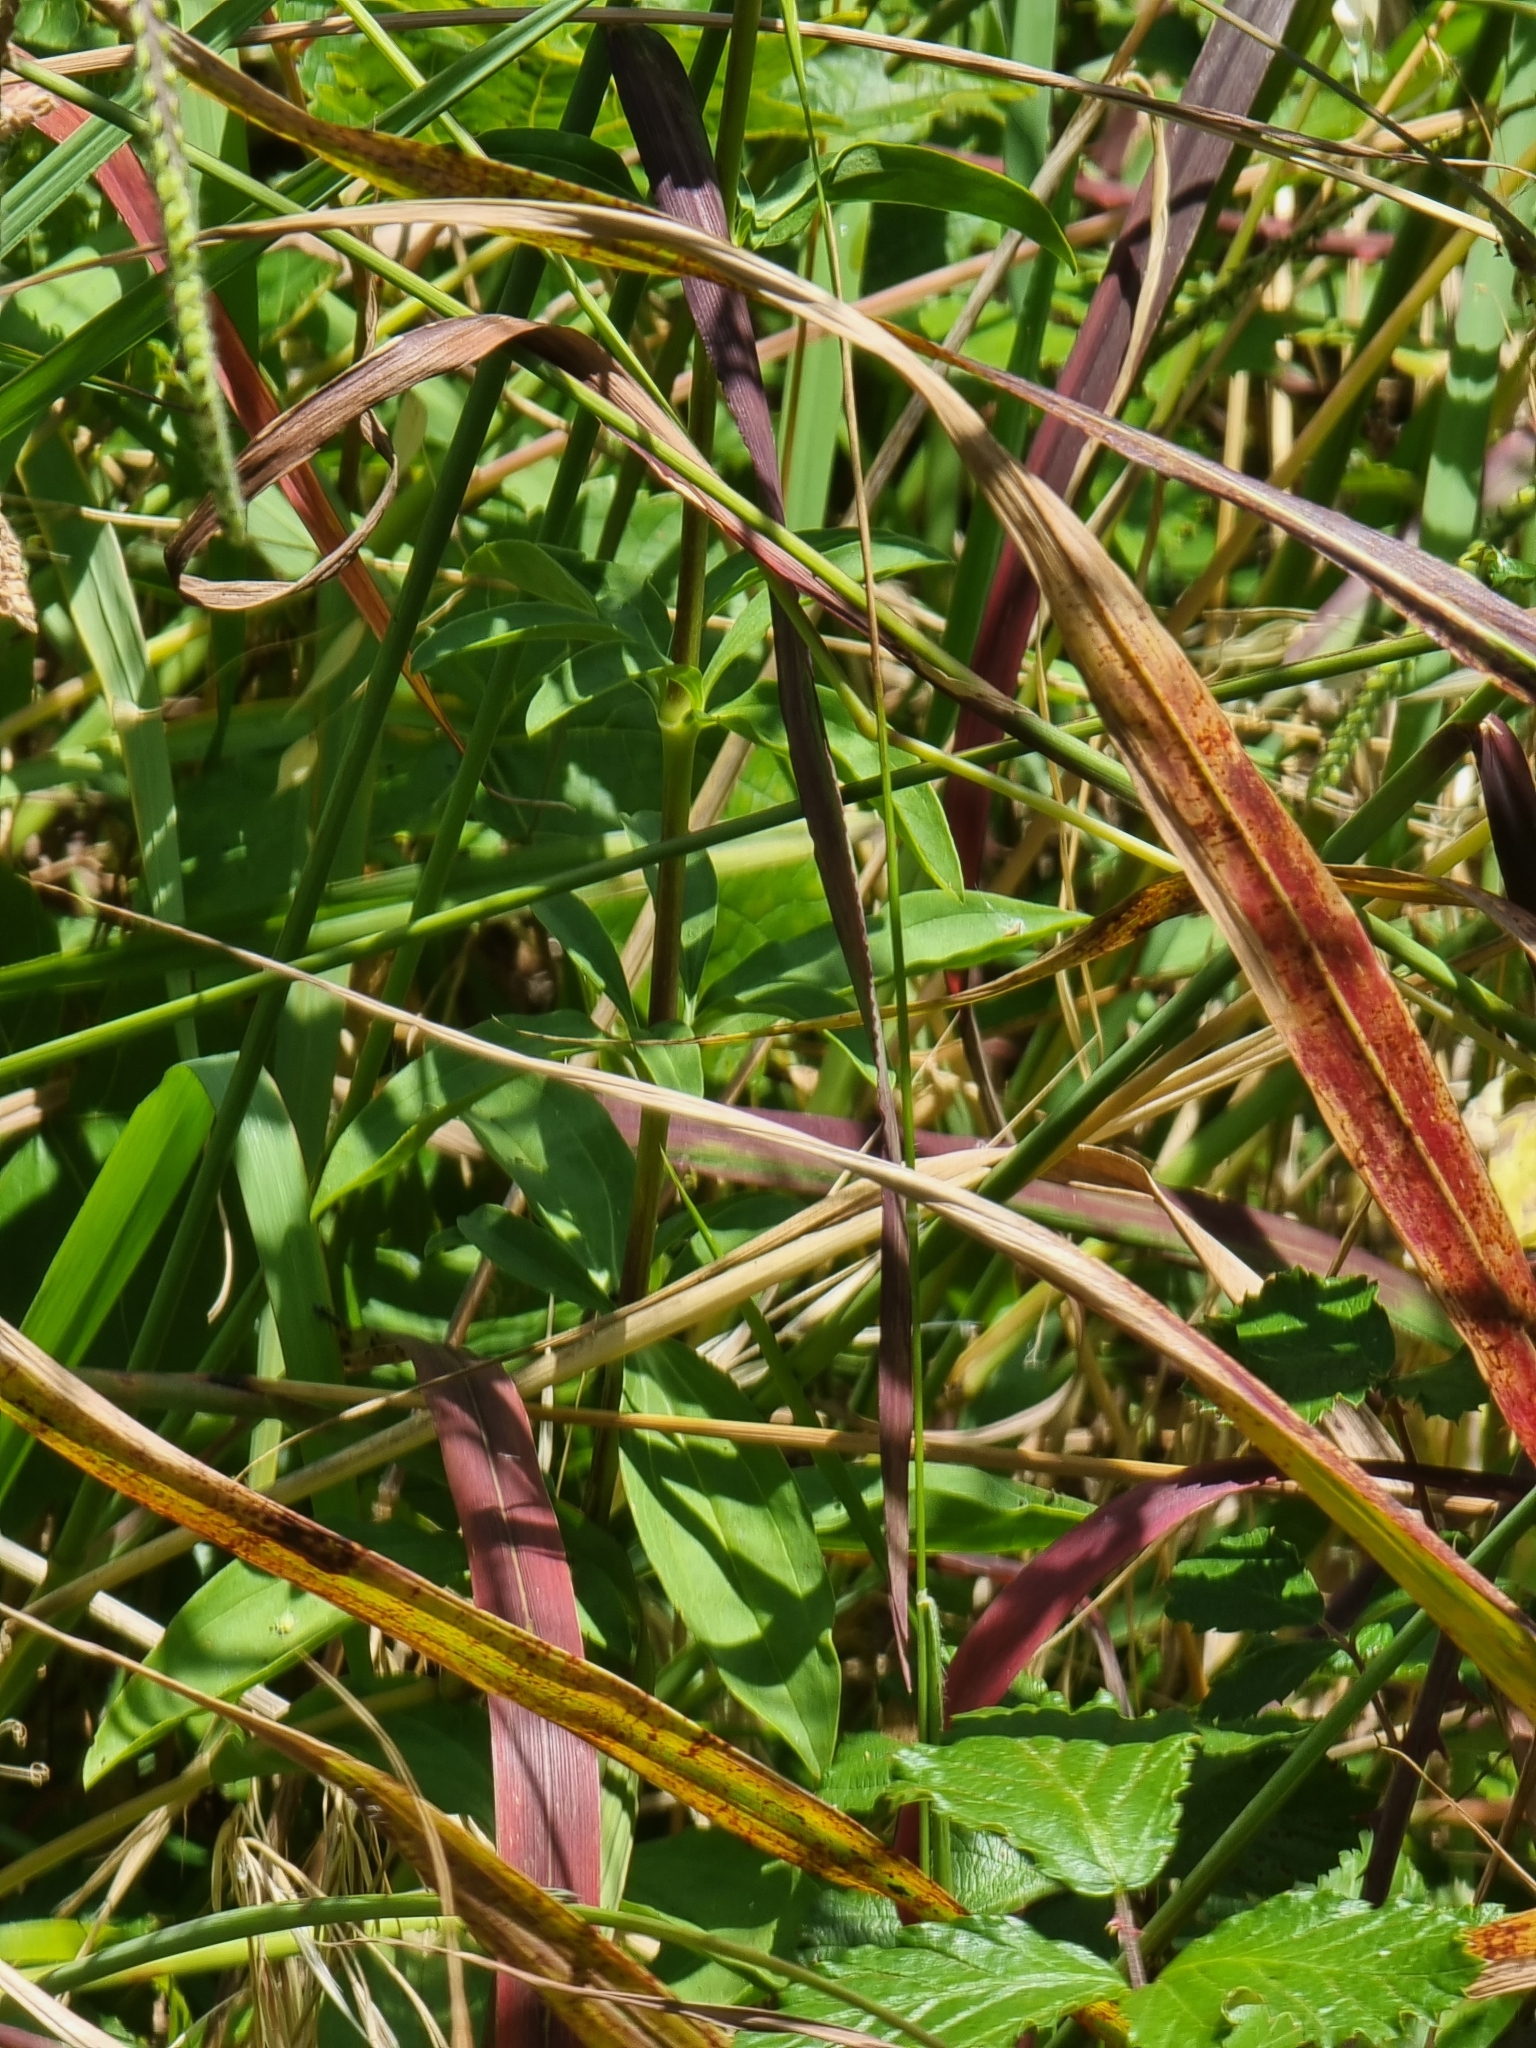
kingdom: Plantae
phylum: Tracheophyta
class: Magnoliopsida
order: Caryophyllales
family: Caryophyllaceae
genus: Saponaria
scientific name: Saponaria officinalis
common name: Soapwort
